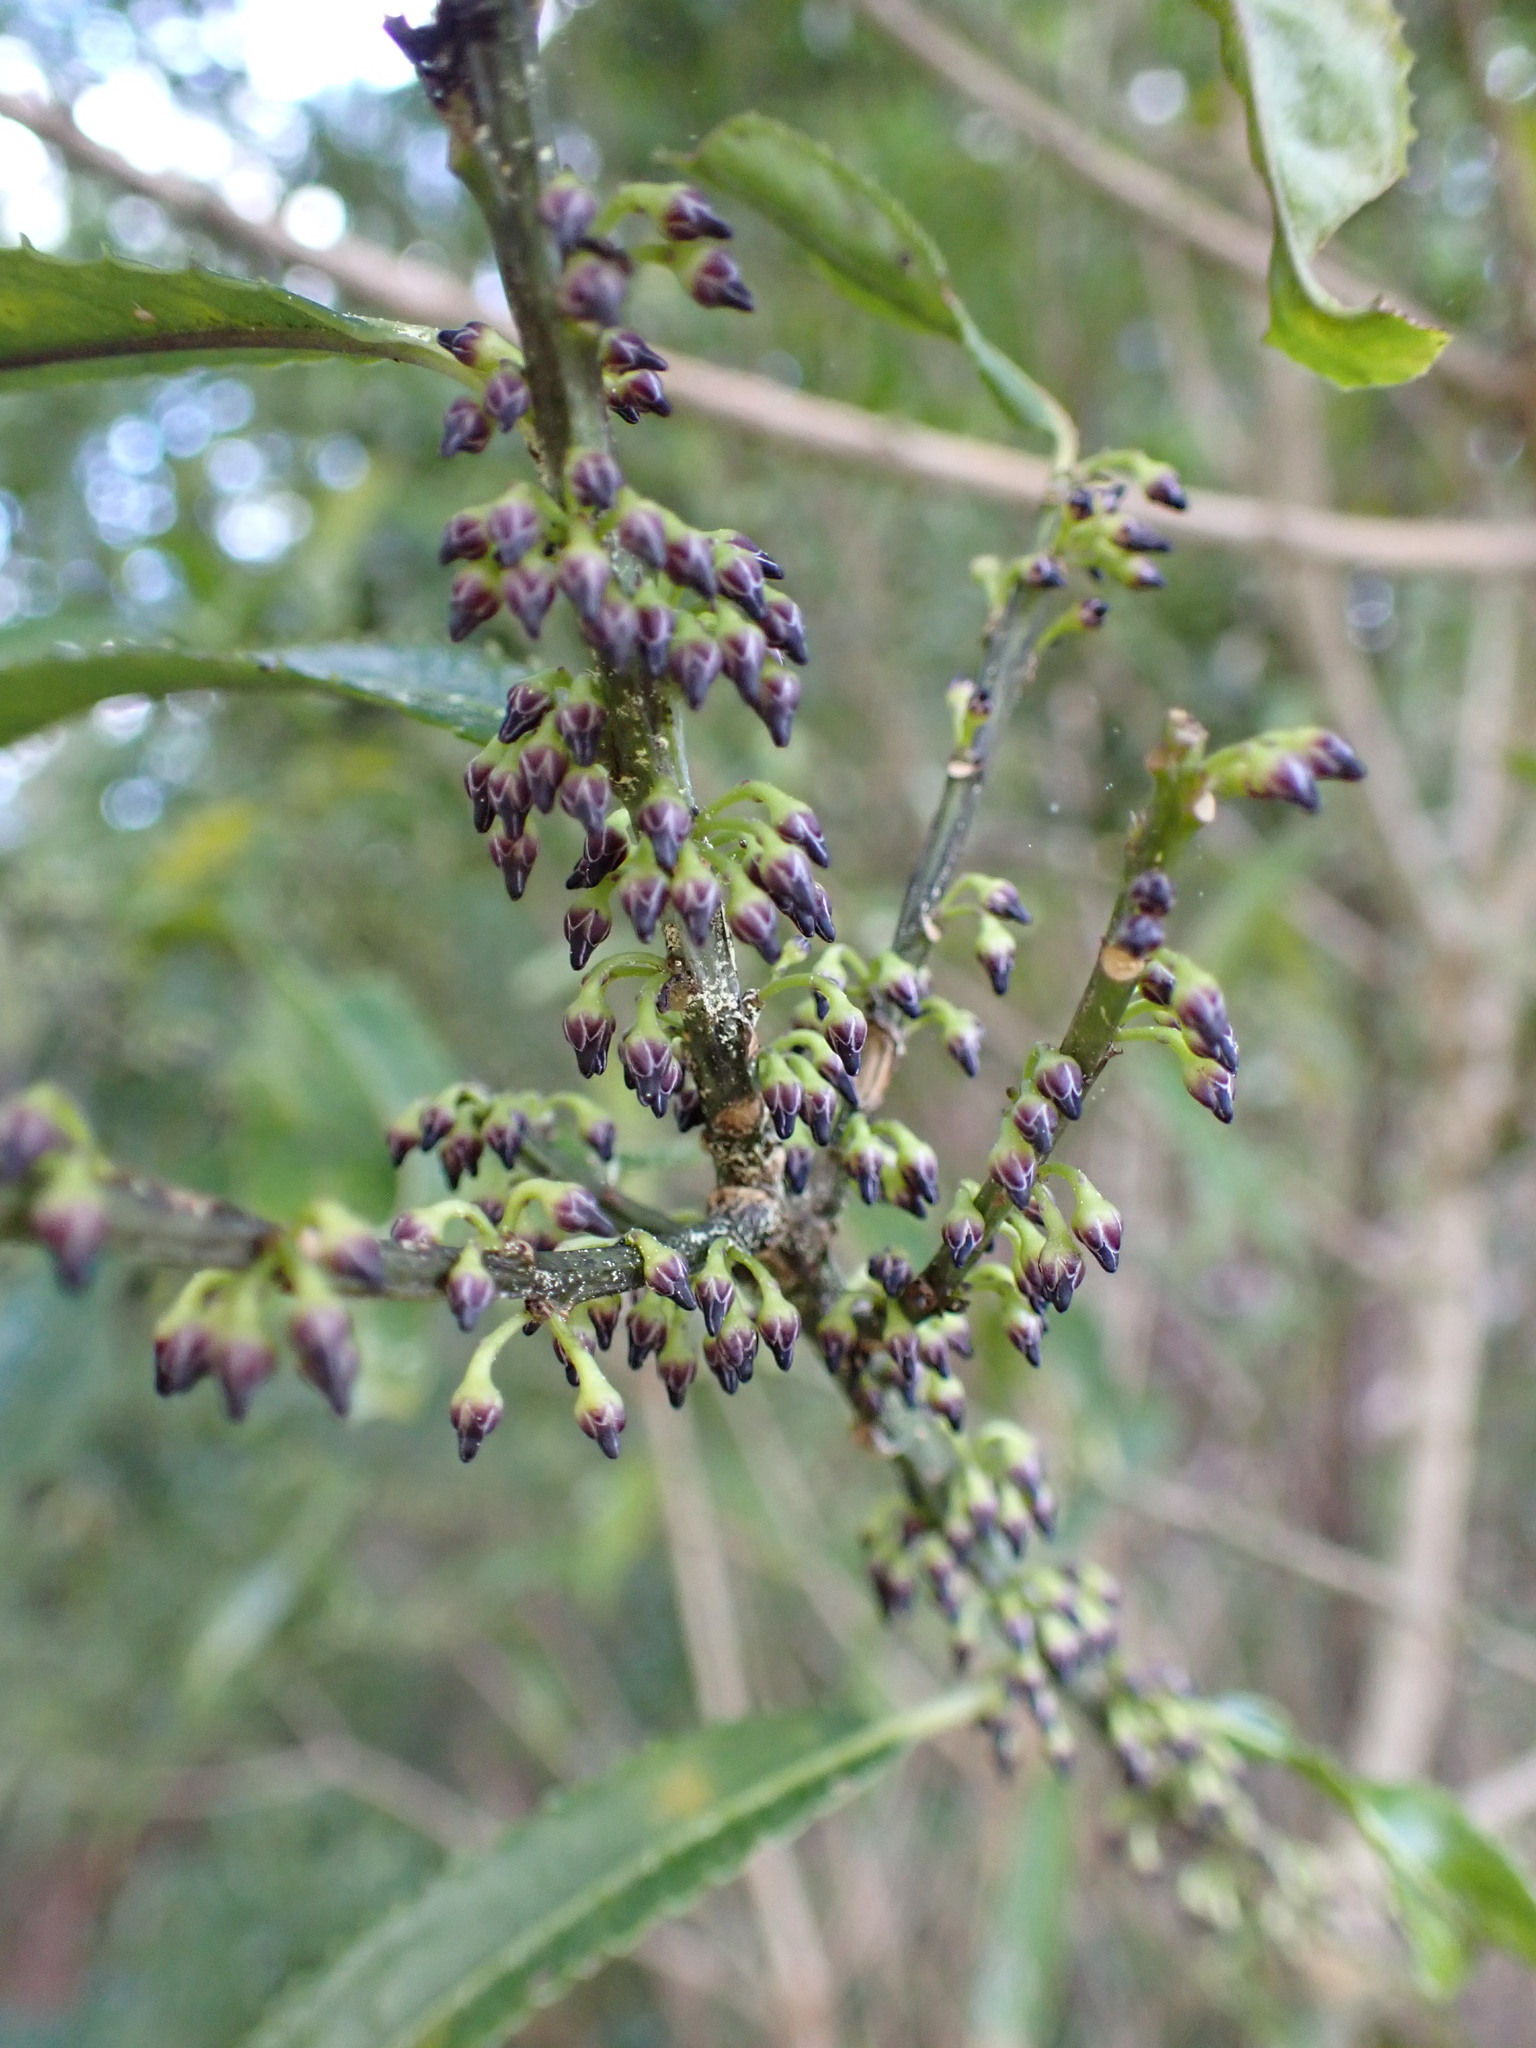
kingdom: Plantae
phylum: Tracheophyta
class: Magnoliopsida
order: Malpighiales
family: Violaceae
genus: Melicytus
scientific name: Melicytus lanceolatus
